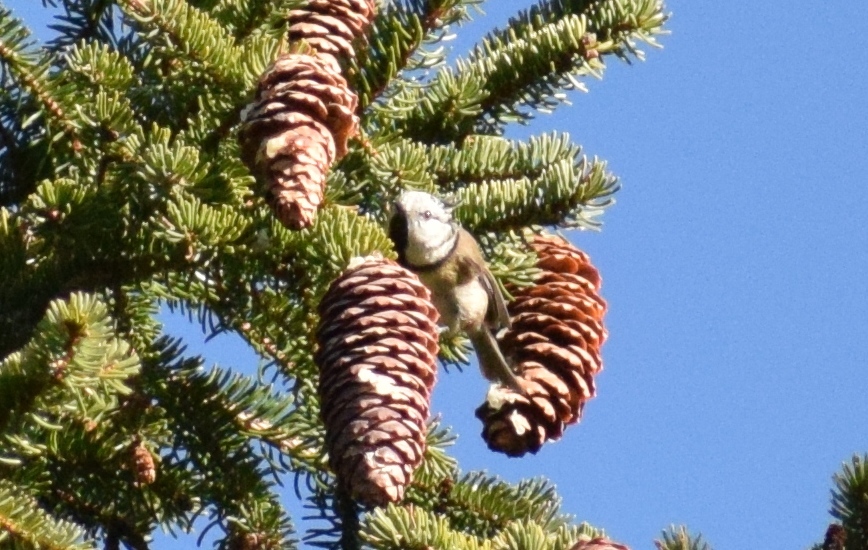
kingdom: Animalia
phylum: Chordata
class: Aves
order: Passeriformes
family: Paridae
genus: Lophophanes
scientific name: Lophophanes cristatus
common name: European crested tit
